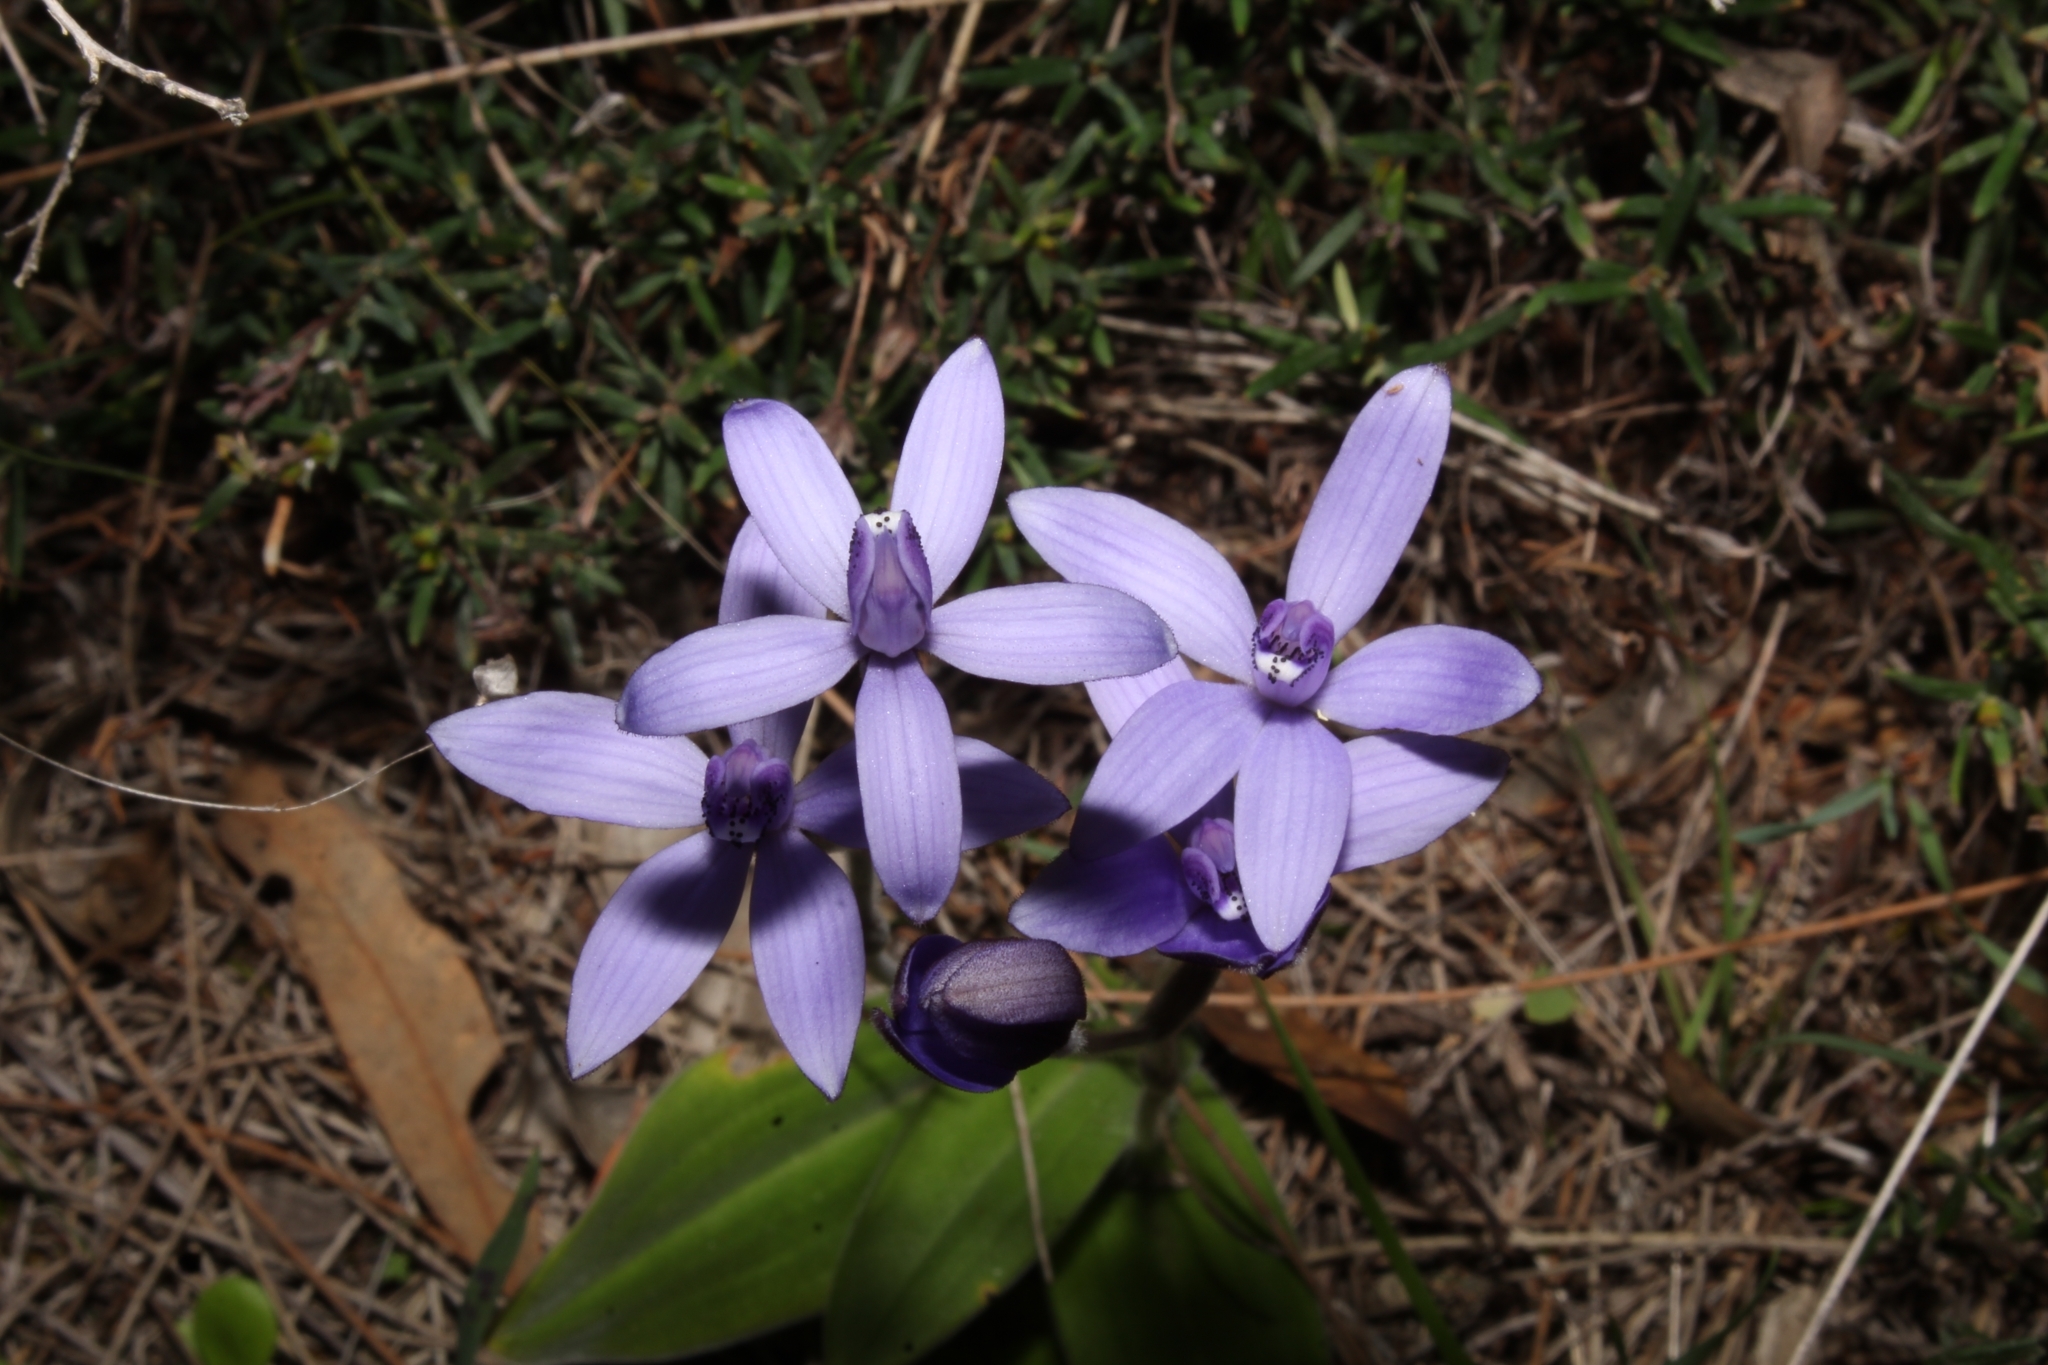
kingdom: Plantae
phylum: Tracheophyta
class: Liliopsida
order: Asparagales
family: Orchidaceae
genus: Caladenia
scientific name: Caladenia sericea
